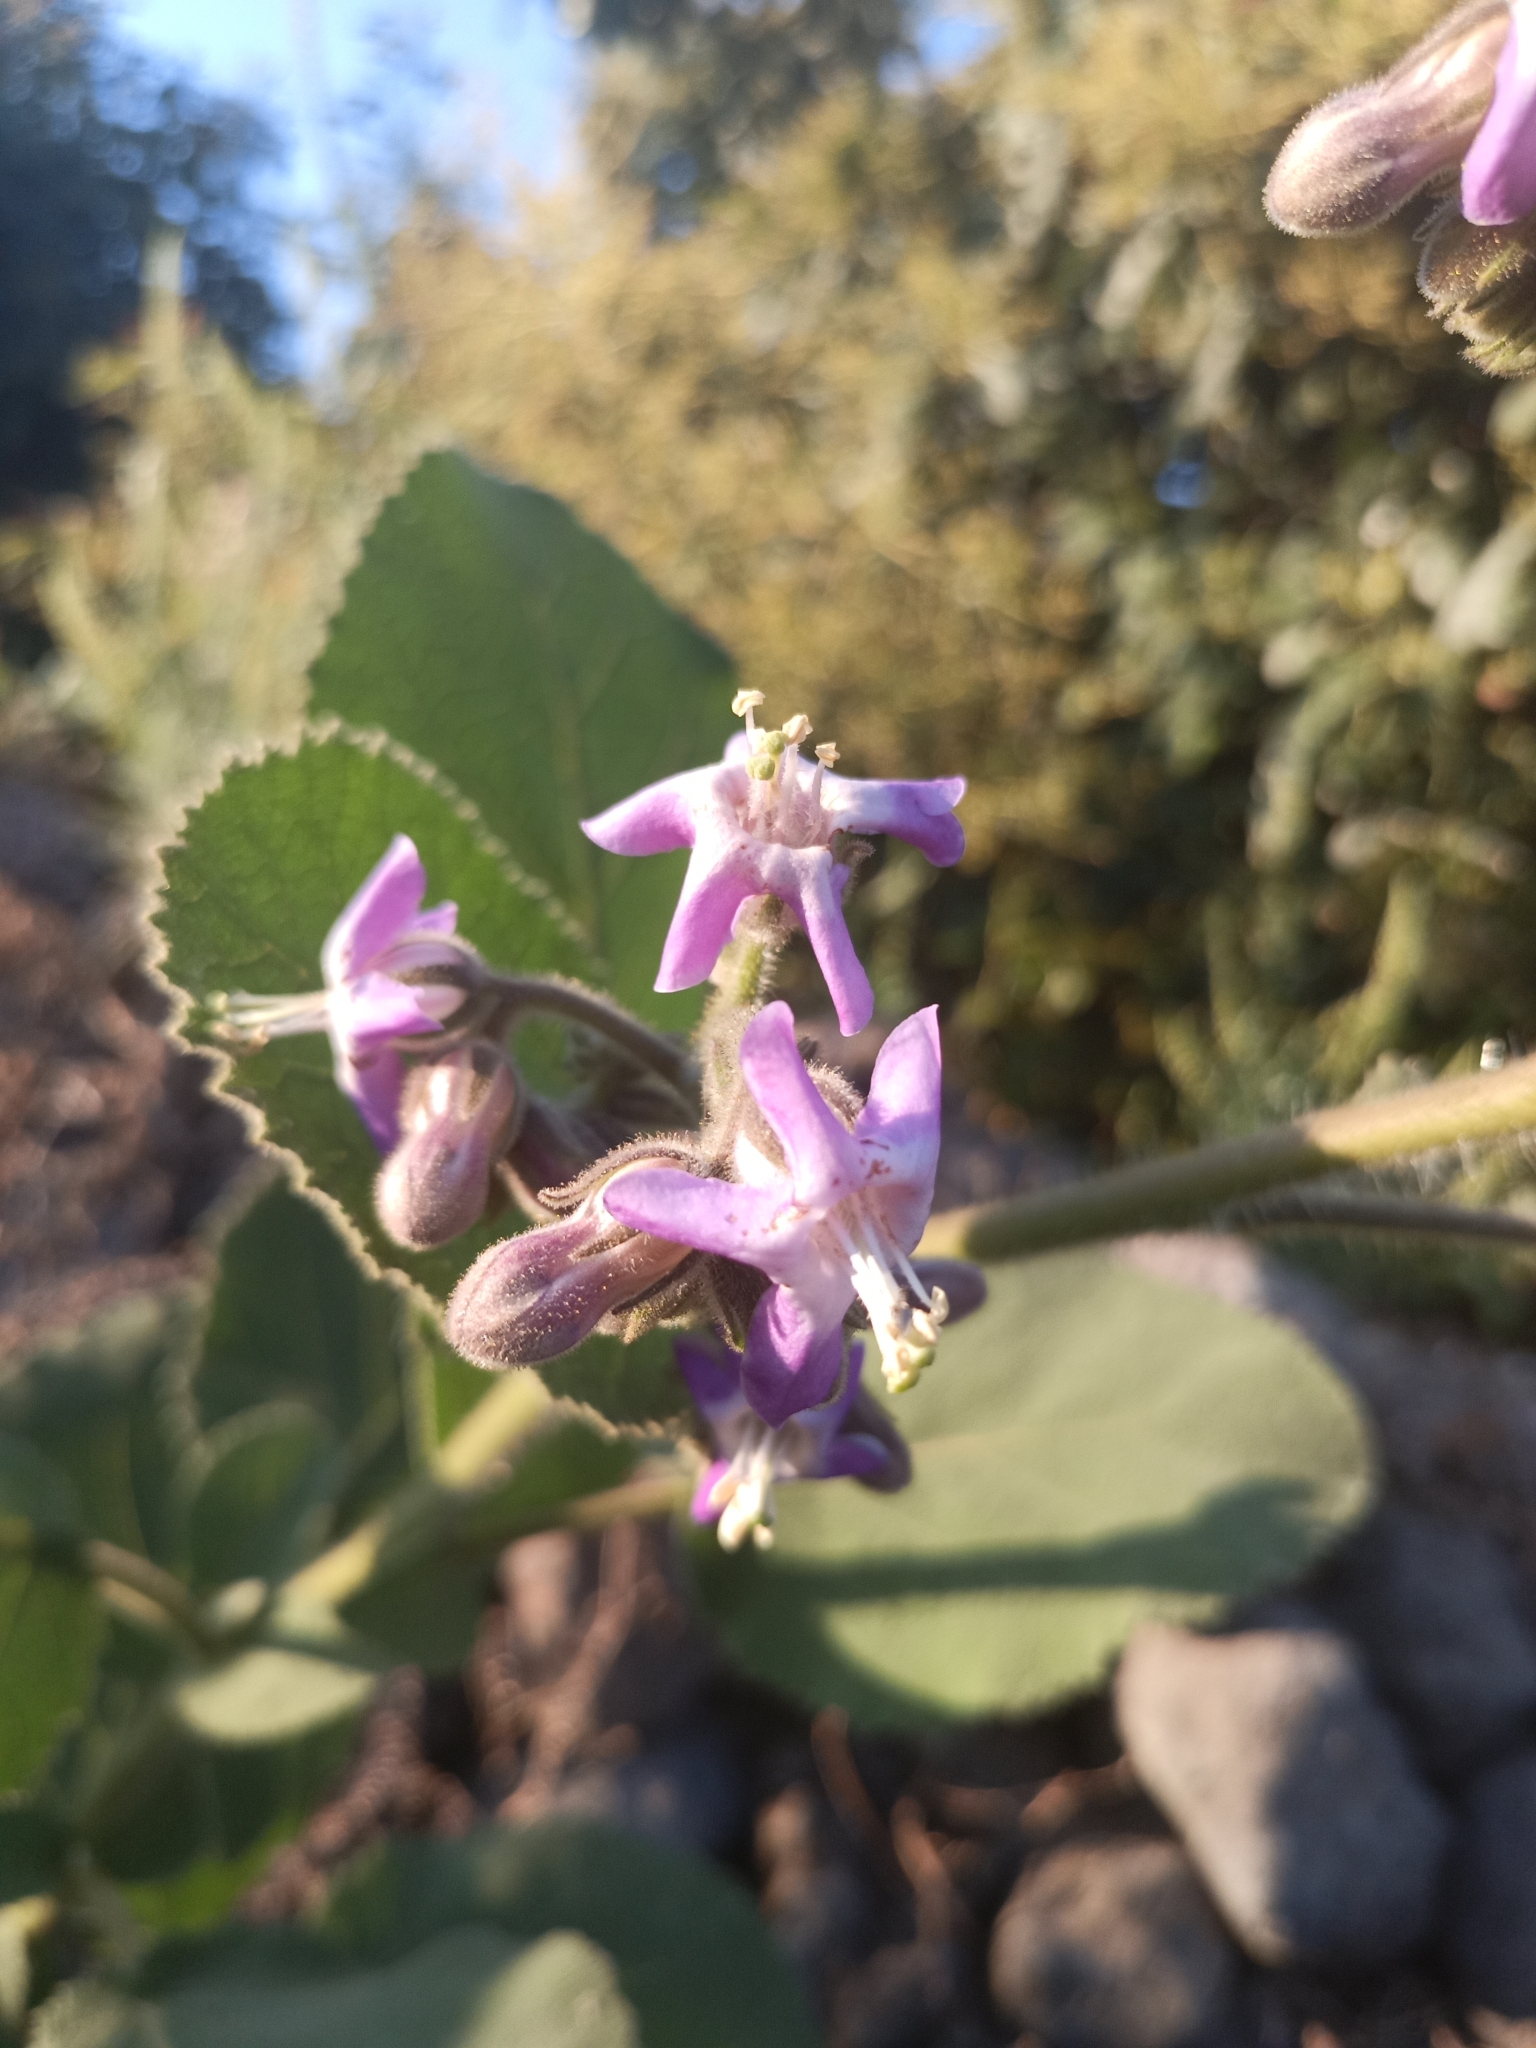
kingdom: Plantae
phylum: Tracheophyta
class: Magnoliopsida
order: Boraginales
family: Namaceae
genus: Wigandia
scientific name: Wigandia urens
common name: Caracus wigandia
